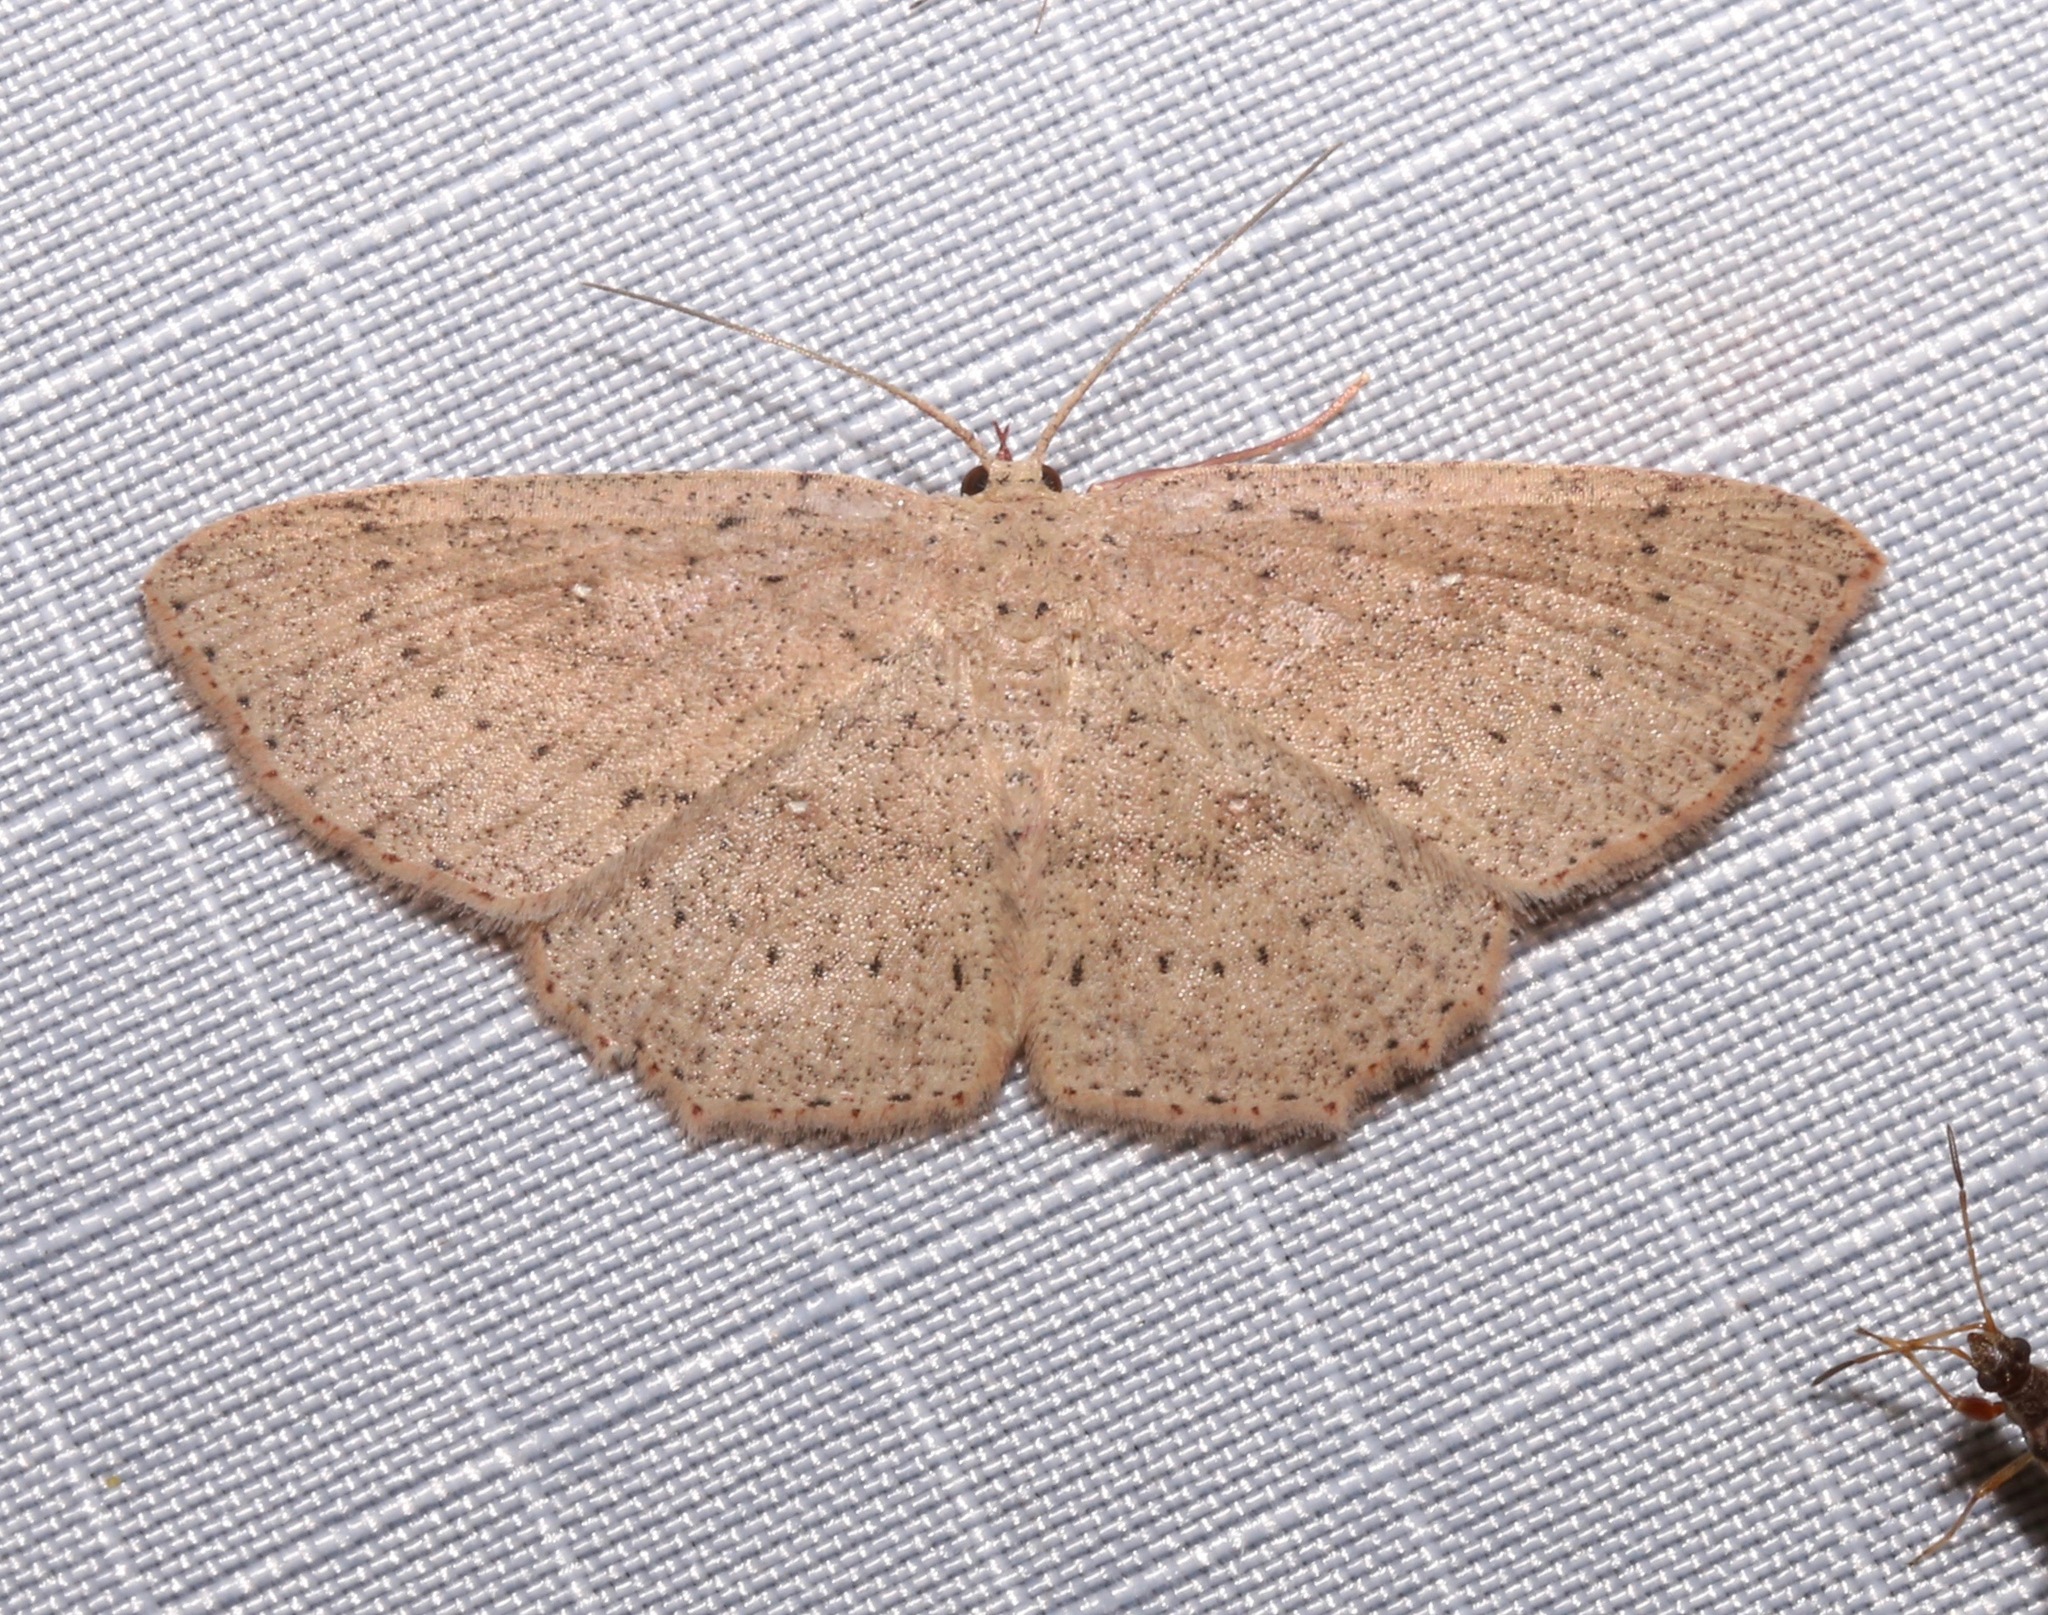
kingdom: Animalia
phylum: Arthropoda
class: Insecta
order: Lepidoptera
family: Geometridae
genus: Cyclophora
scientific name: Cyclophora myrtaria
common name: Waxmyrtle wave moth
